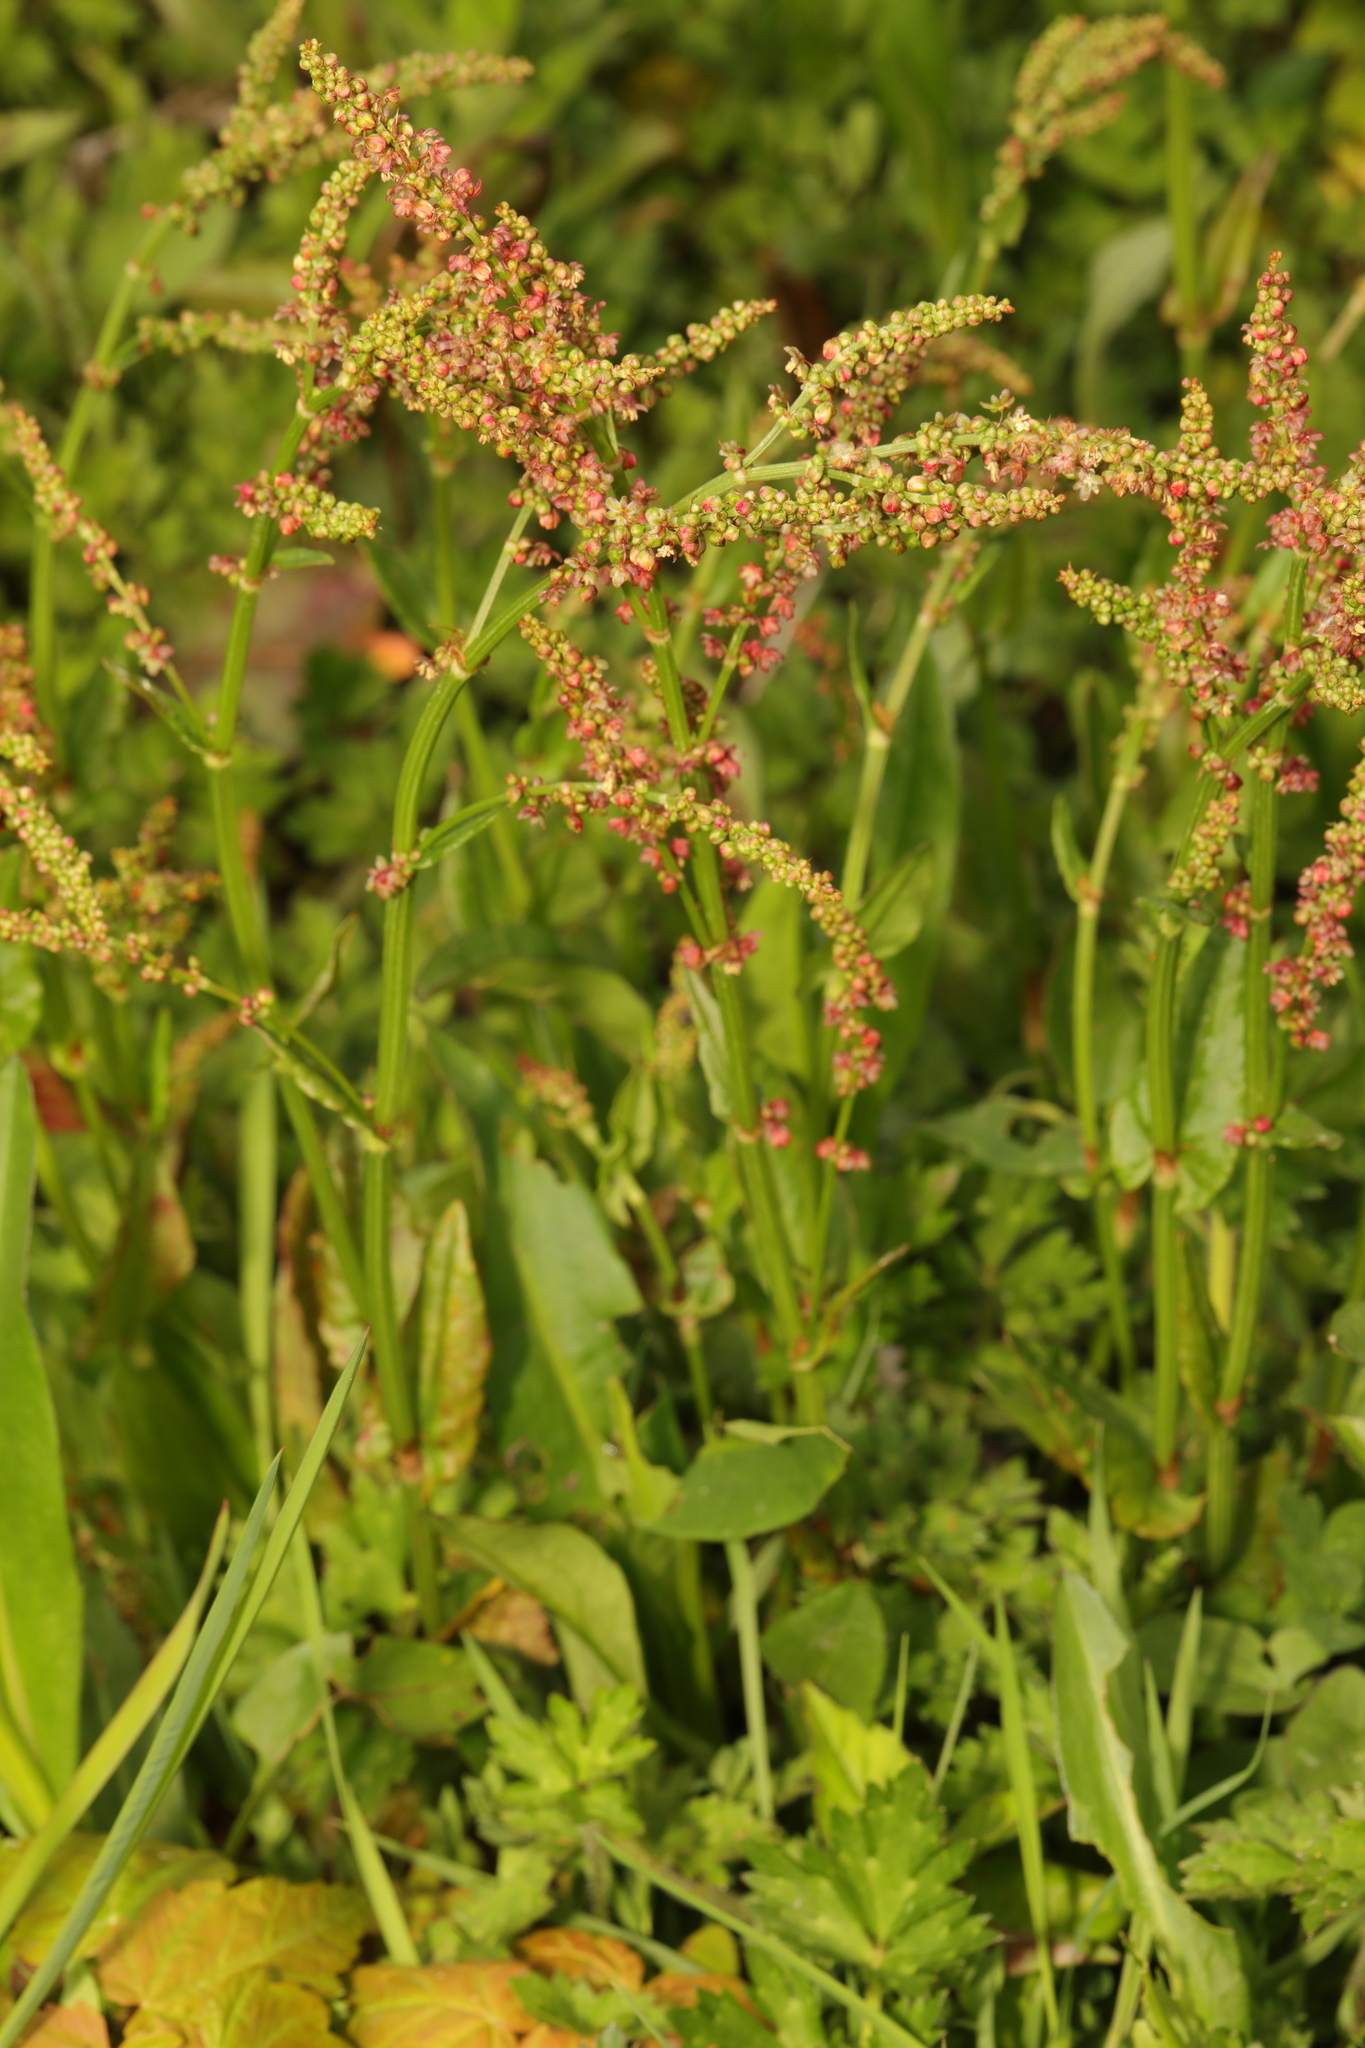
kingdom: Plantae
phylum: Tracheophyta
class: Magnoliopsida
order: Caryophyllales
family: Polygonaceae
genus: Rumex
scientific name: Rumex acetosa
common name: Garden sorrel
